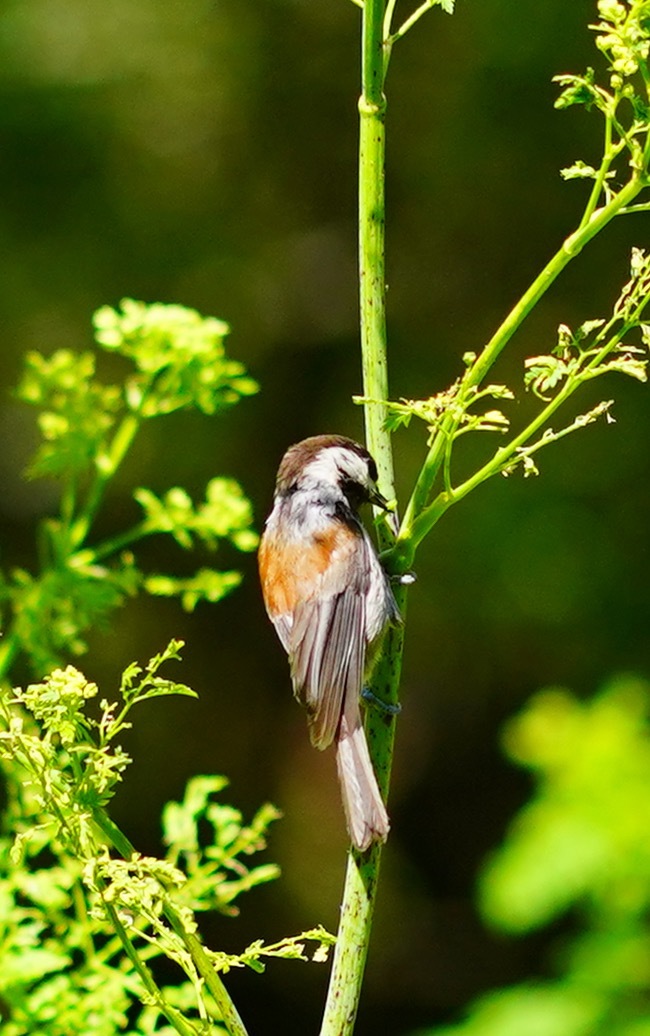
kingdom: Animalia
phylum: Chordata
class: Aves
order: Passeriformes
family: Paridae
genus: Poecile
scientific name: Poecile rufescens
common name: Chestnut-backed chickadee
